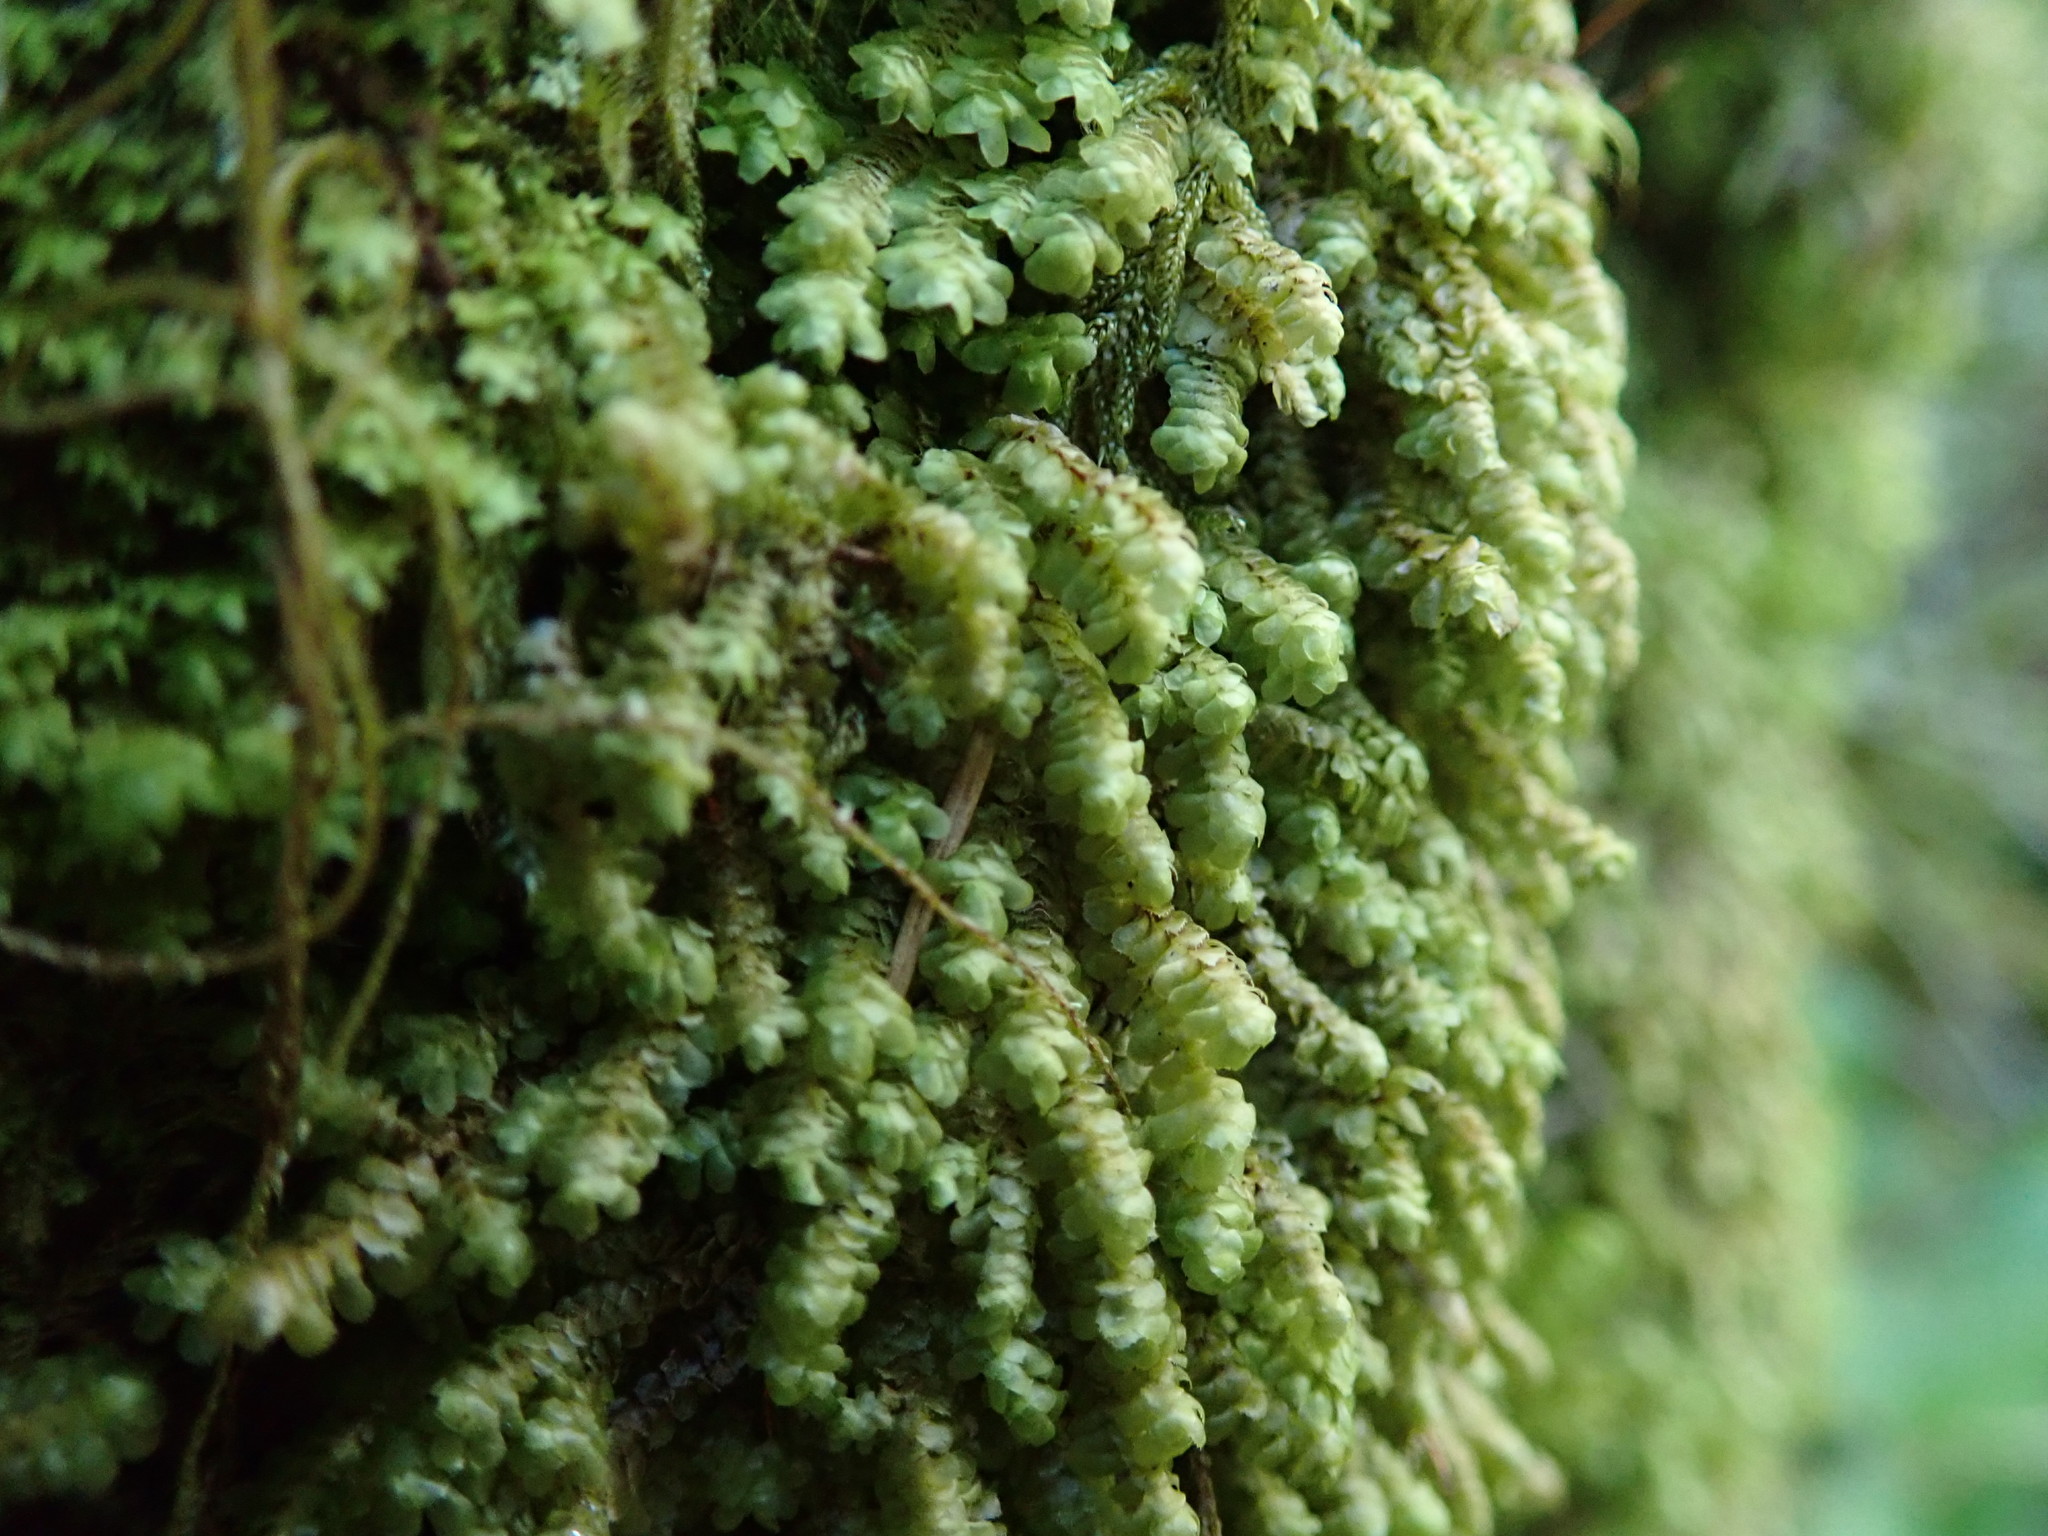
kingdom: Plantae
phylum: Marchantiophyta
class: Jungermanniopsida
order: Jungermanniales
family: Scapaniaceae
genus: Scapania
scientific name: Scapania bolanderi
